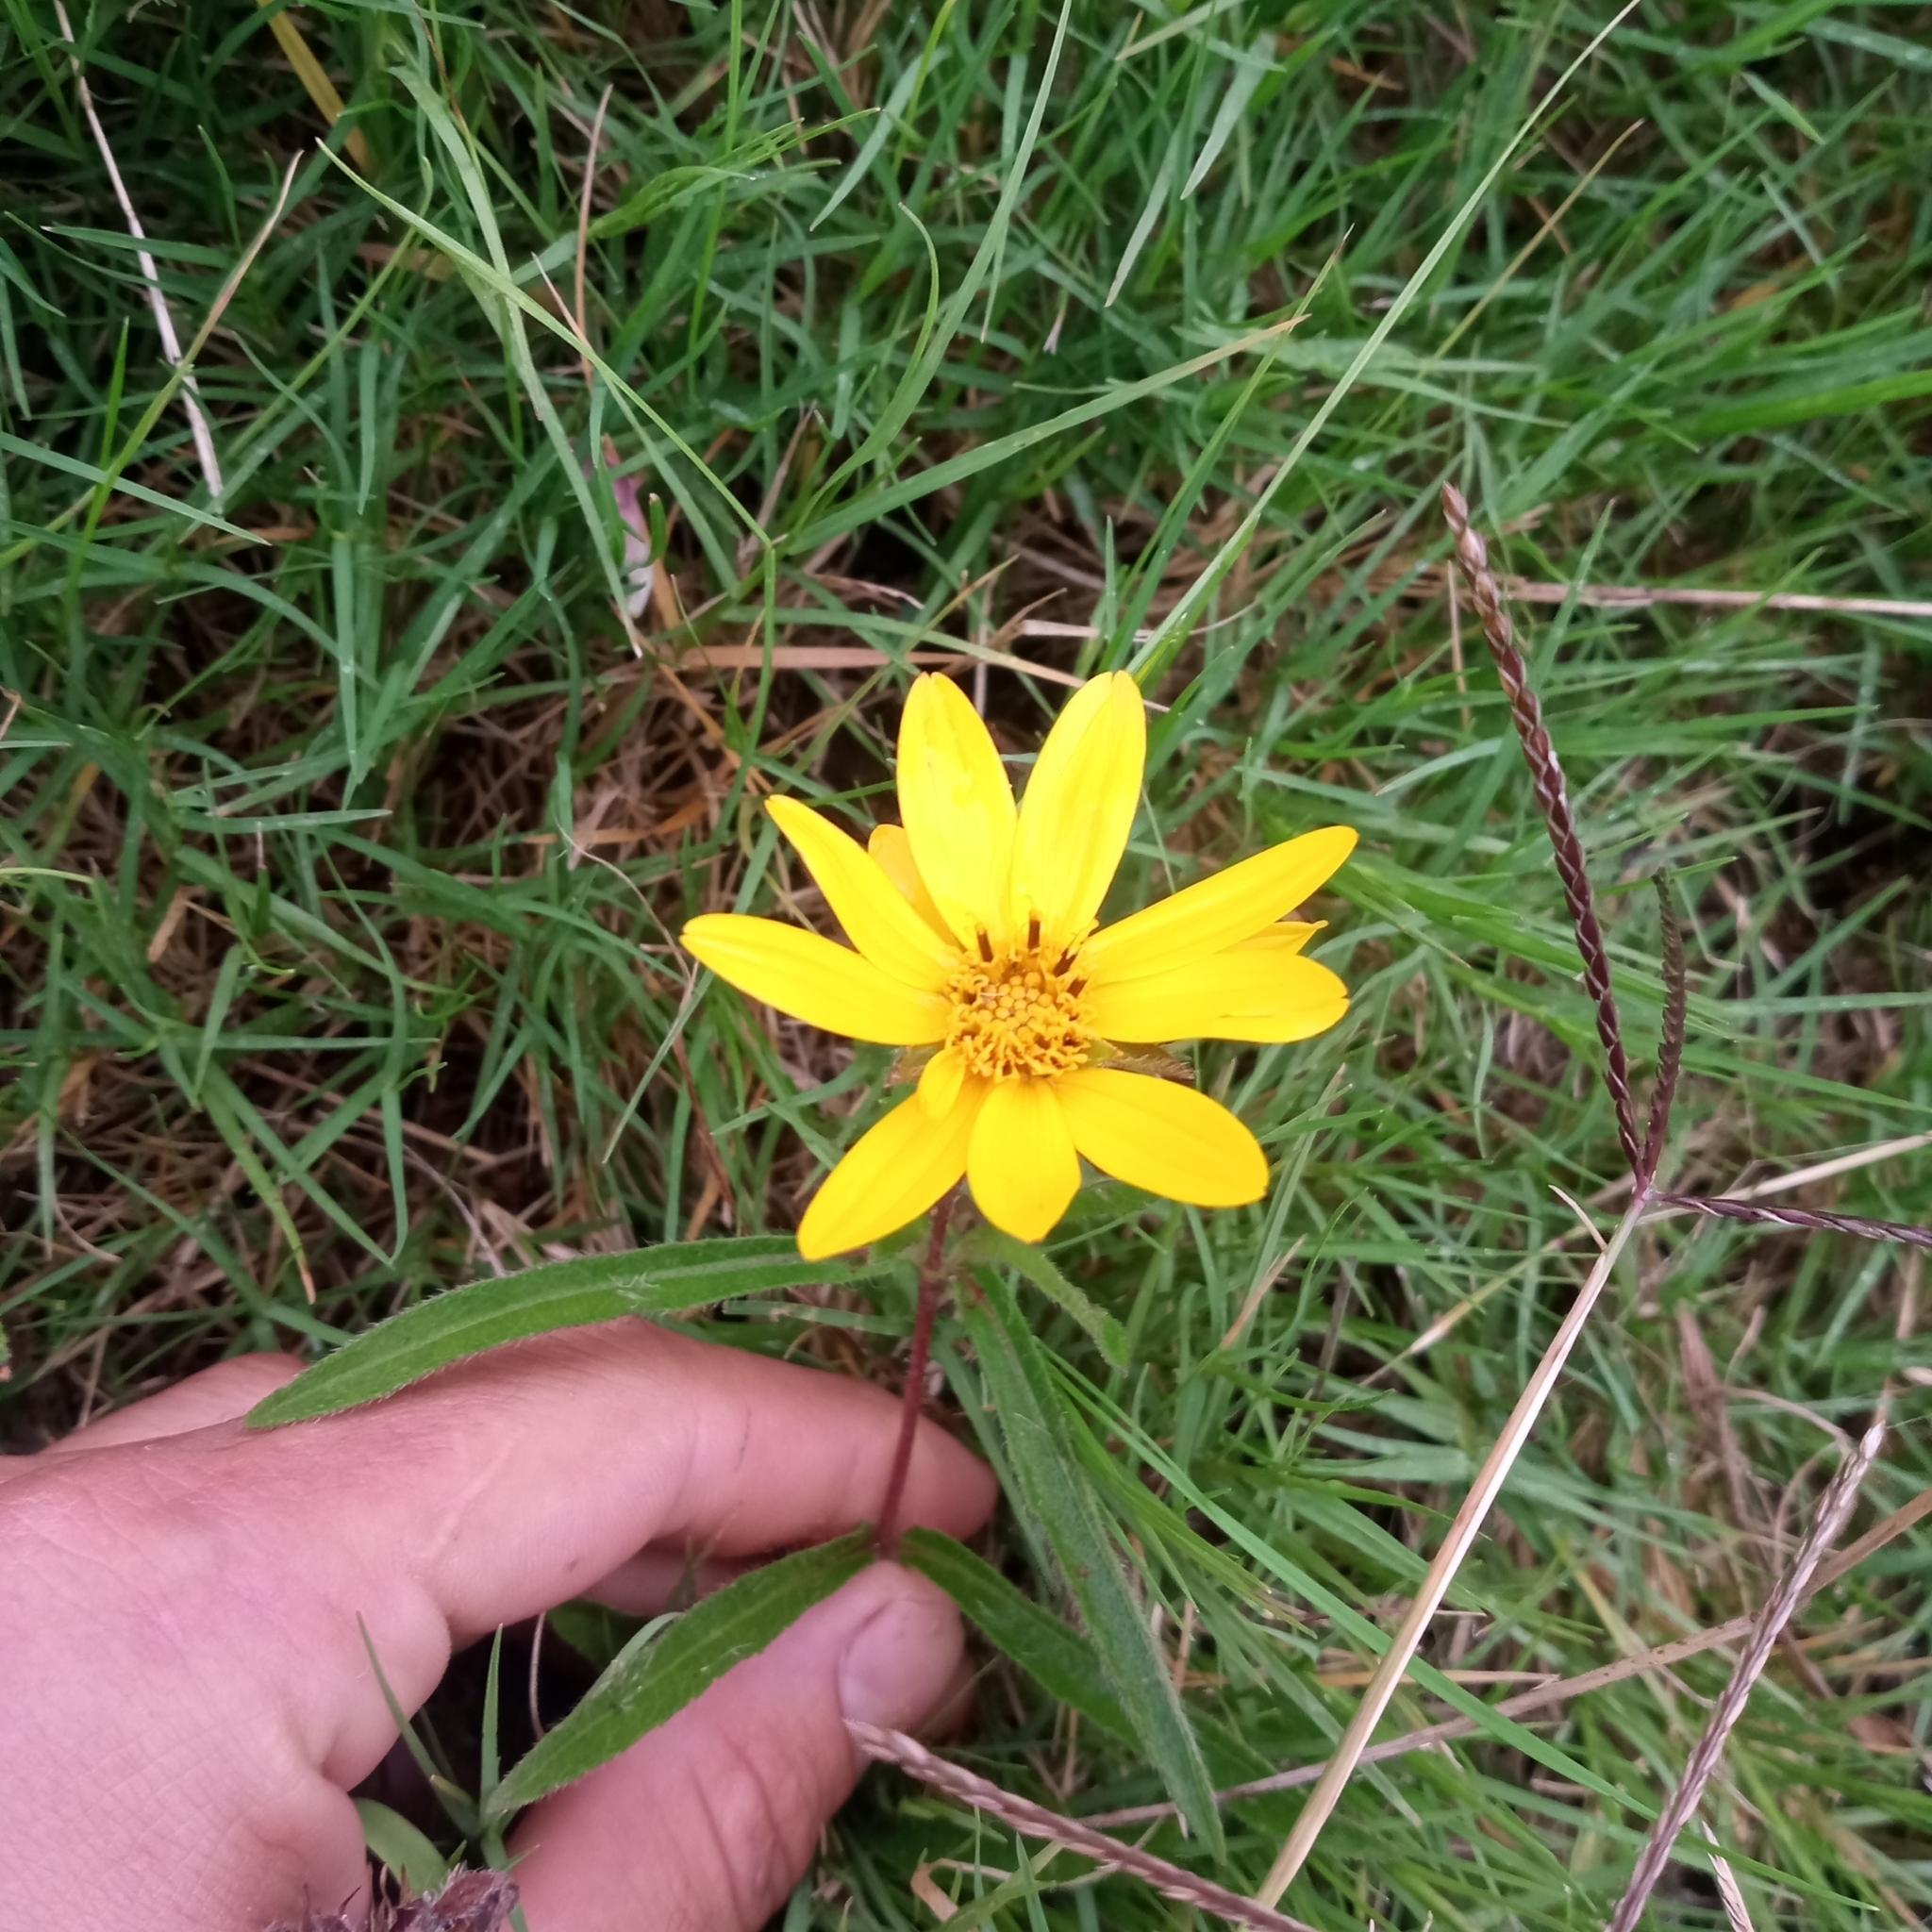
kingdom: Plantae
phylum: Tracheophyta
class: Magnoliopsida
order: Asterales
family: Asteraceae
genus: Wedelia
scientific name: Wedelia montevidensis
